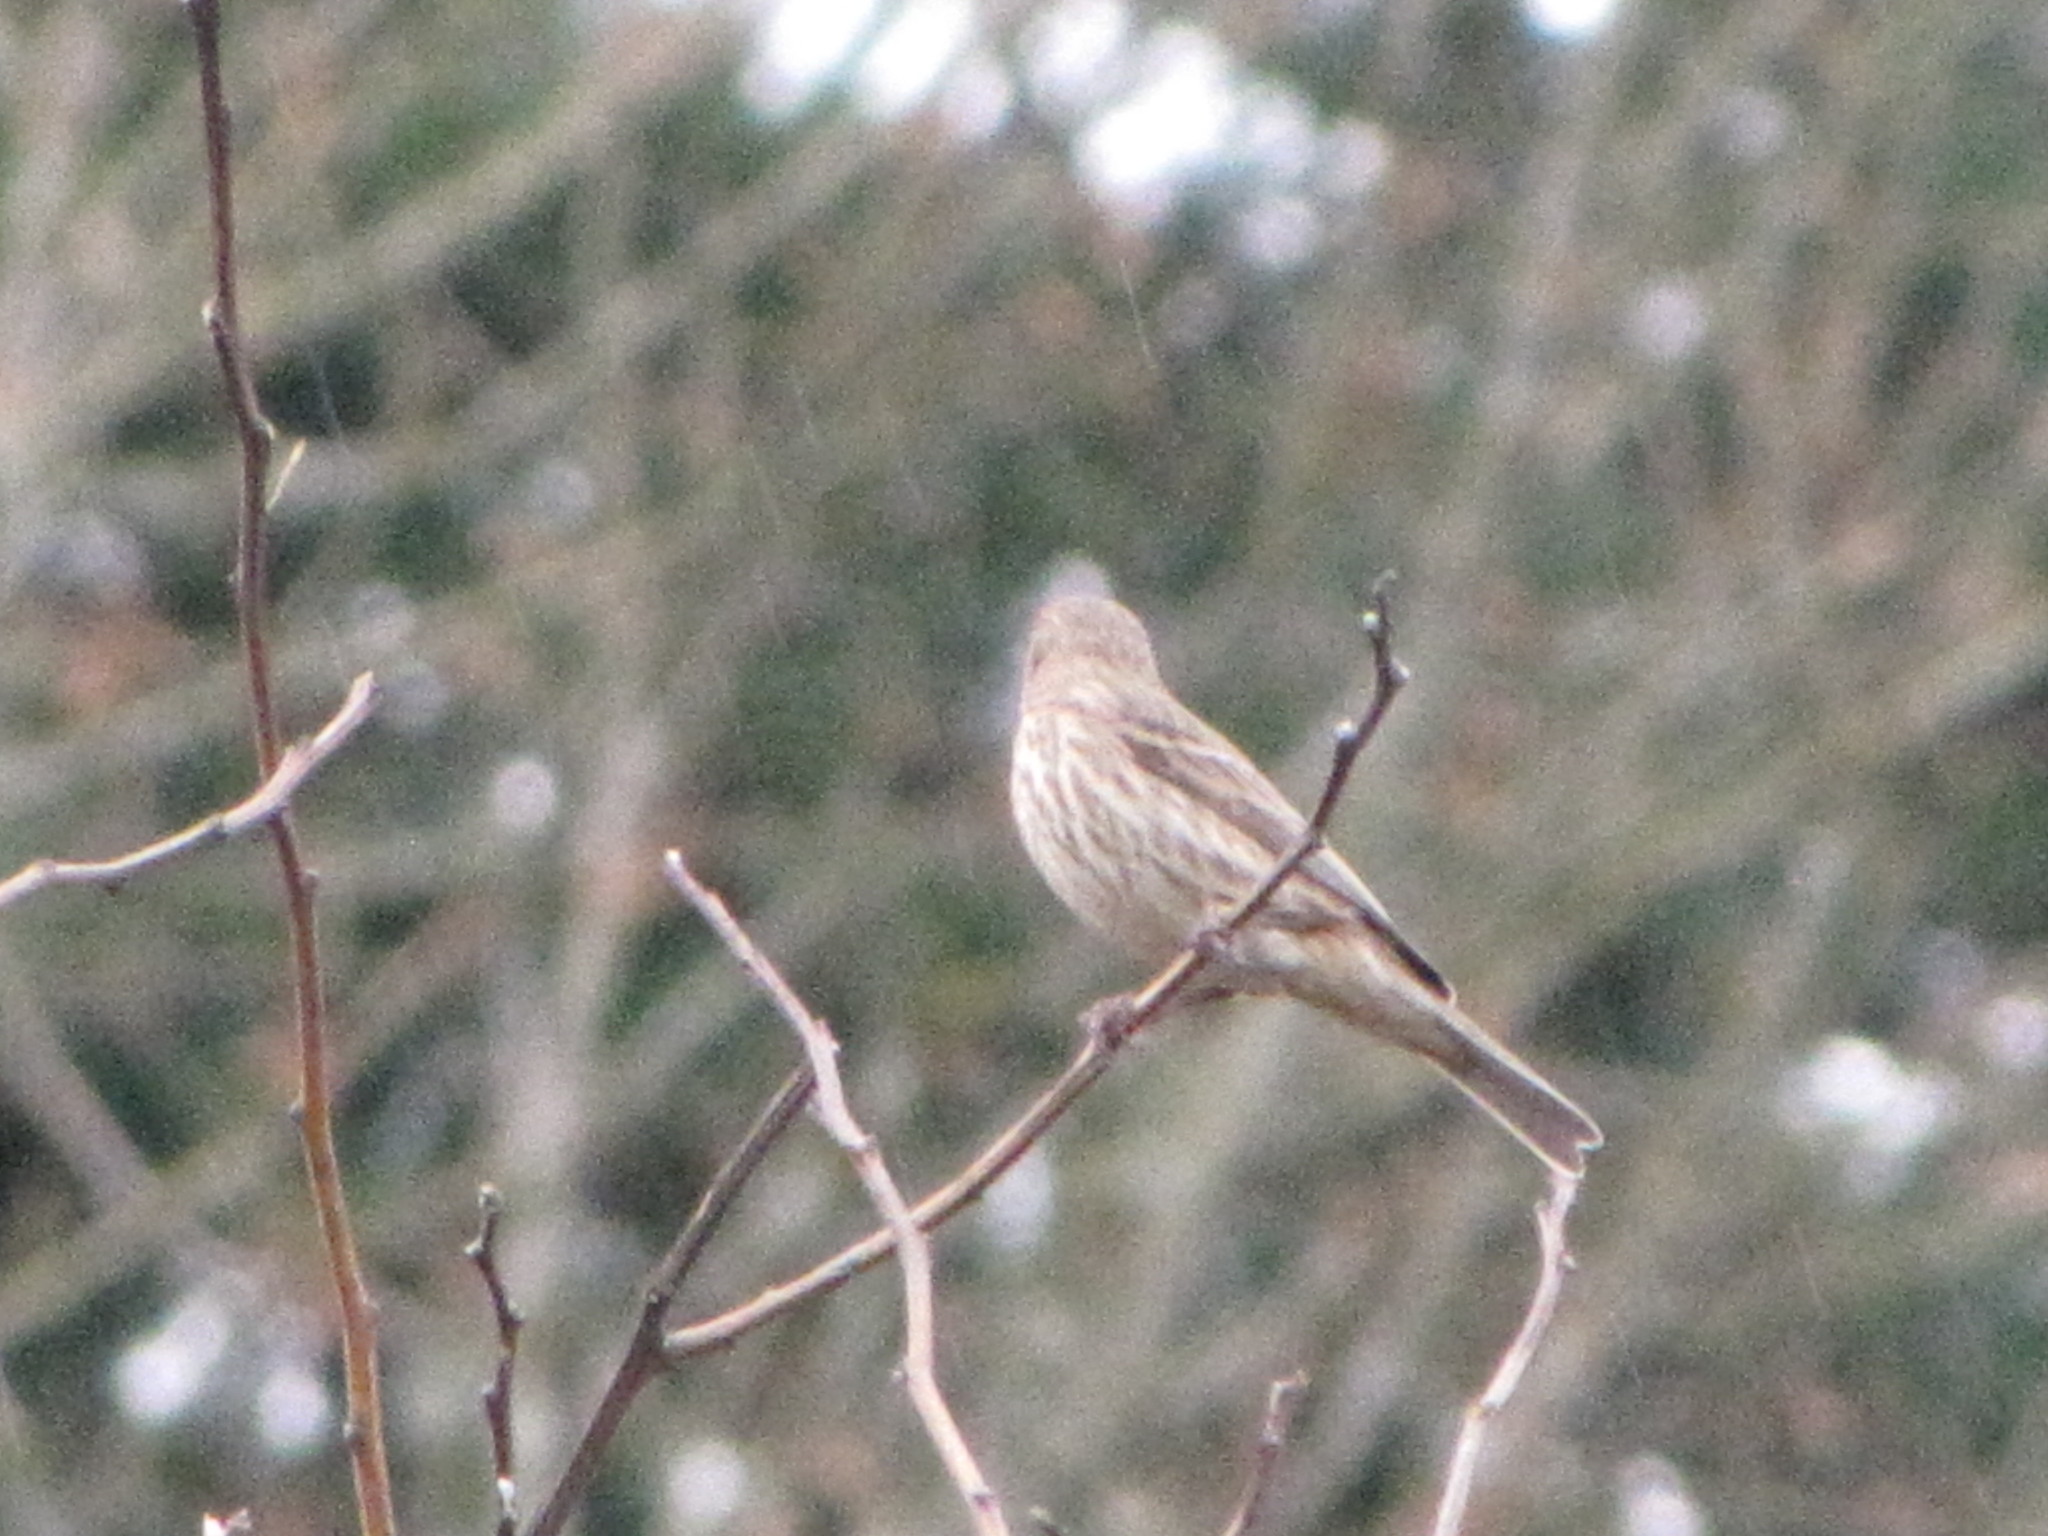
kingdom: Animalia
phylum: Chordata
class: Aves
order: Passeriformes
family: Fringillidae
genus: Haemorhous
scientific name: Haemorhous mexicanus
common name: House finch
